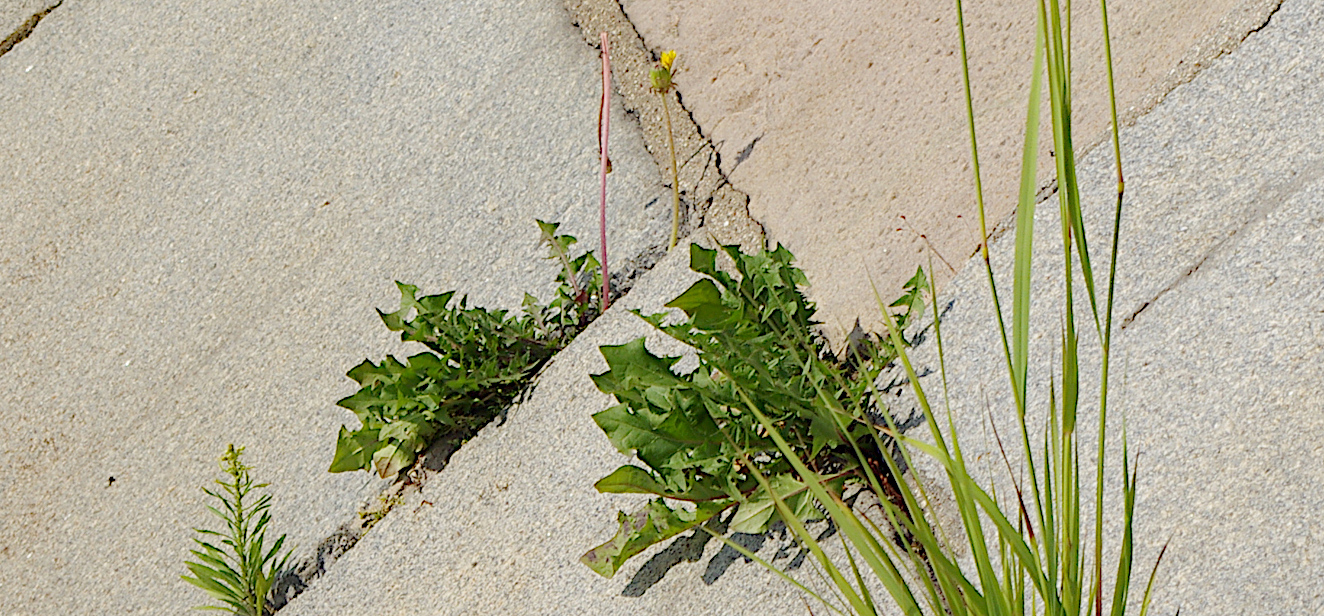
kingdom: Plantae
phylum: Tracheophyta
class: Magnoliopsida
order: Asterales
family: Asteraceae
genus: Taraxacum
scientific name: Taraxacum officinale
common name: Common dandelion
